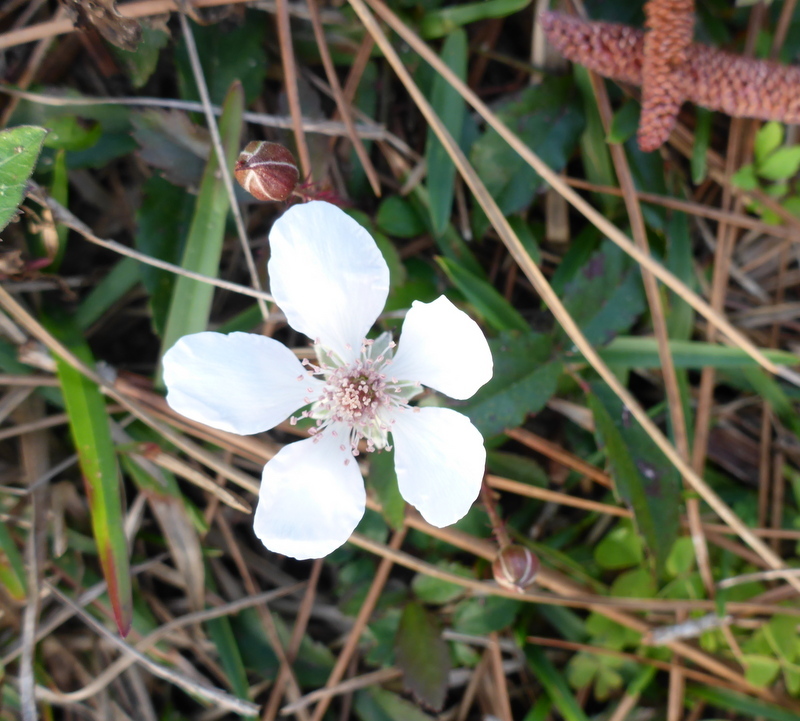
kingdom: Plantae
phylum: Tracheophyta
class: Magnoliopsida
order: Rosales
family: Rosaceae
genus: Rubus
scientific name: Rubus trivialis
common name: Southern dewberry
